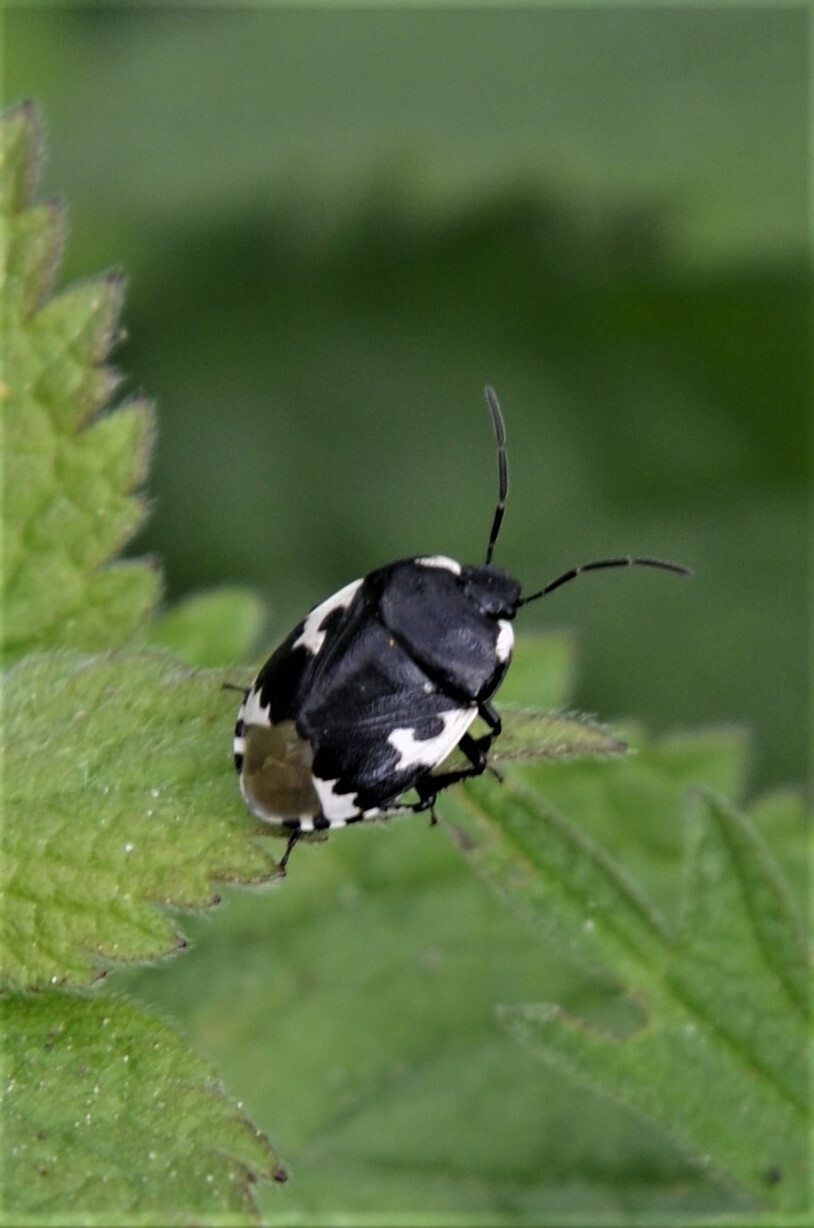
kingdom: Animalia
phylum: Arthropoda
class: Insecta
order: Hemiptera
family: Cydnidae
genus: Tritomegas
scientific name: Tritomegas bicolor
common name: Pied shieldbug
